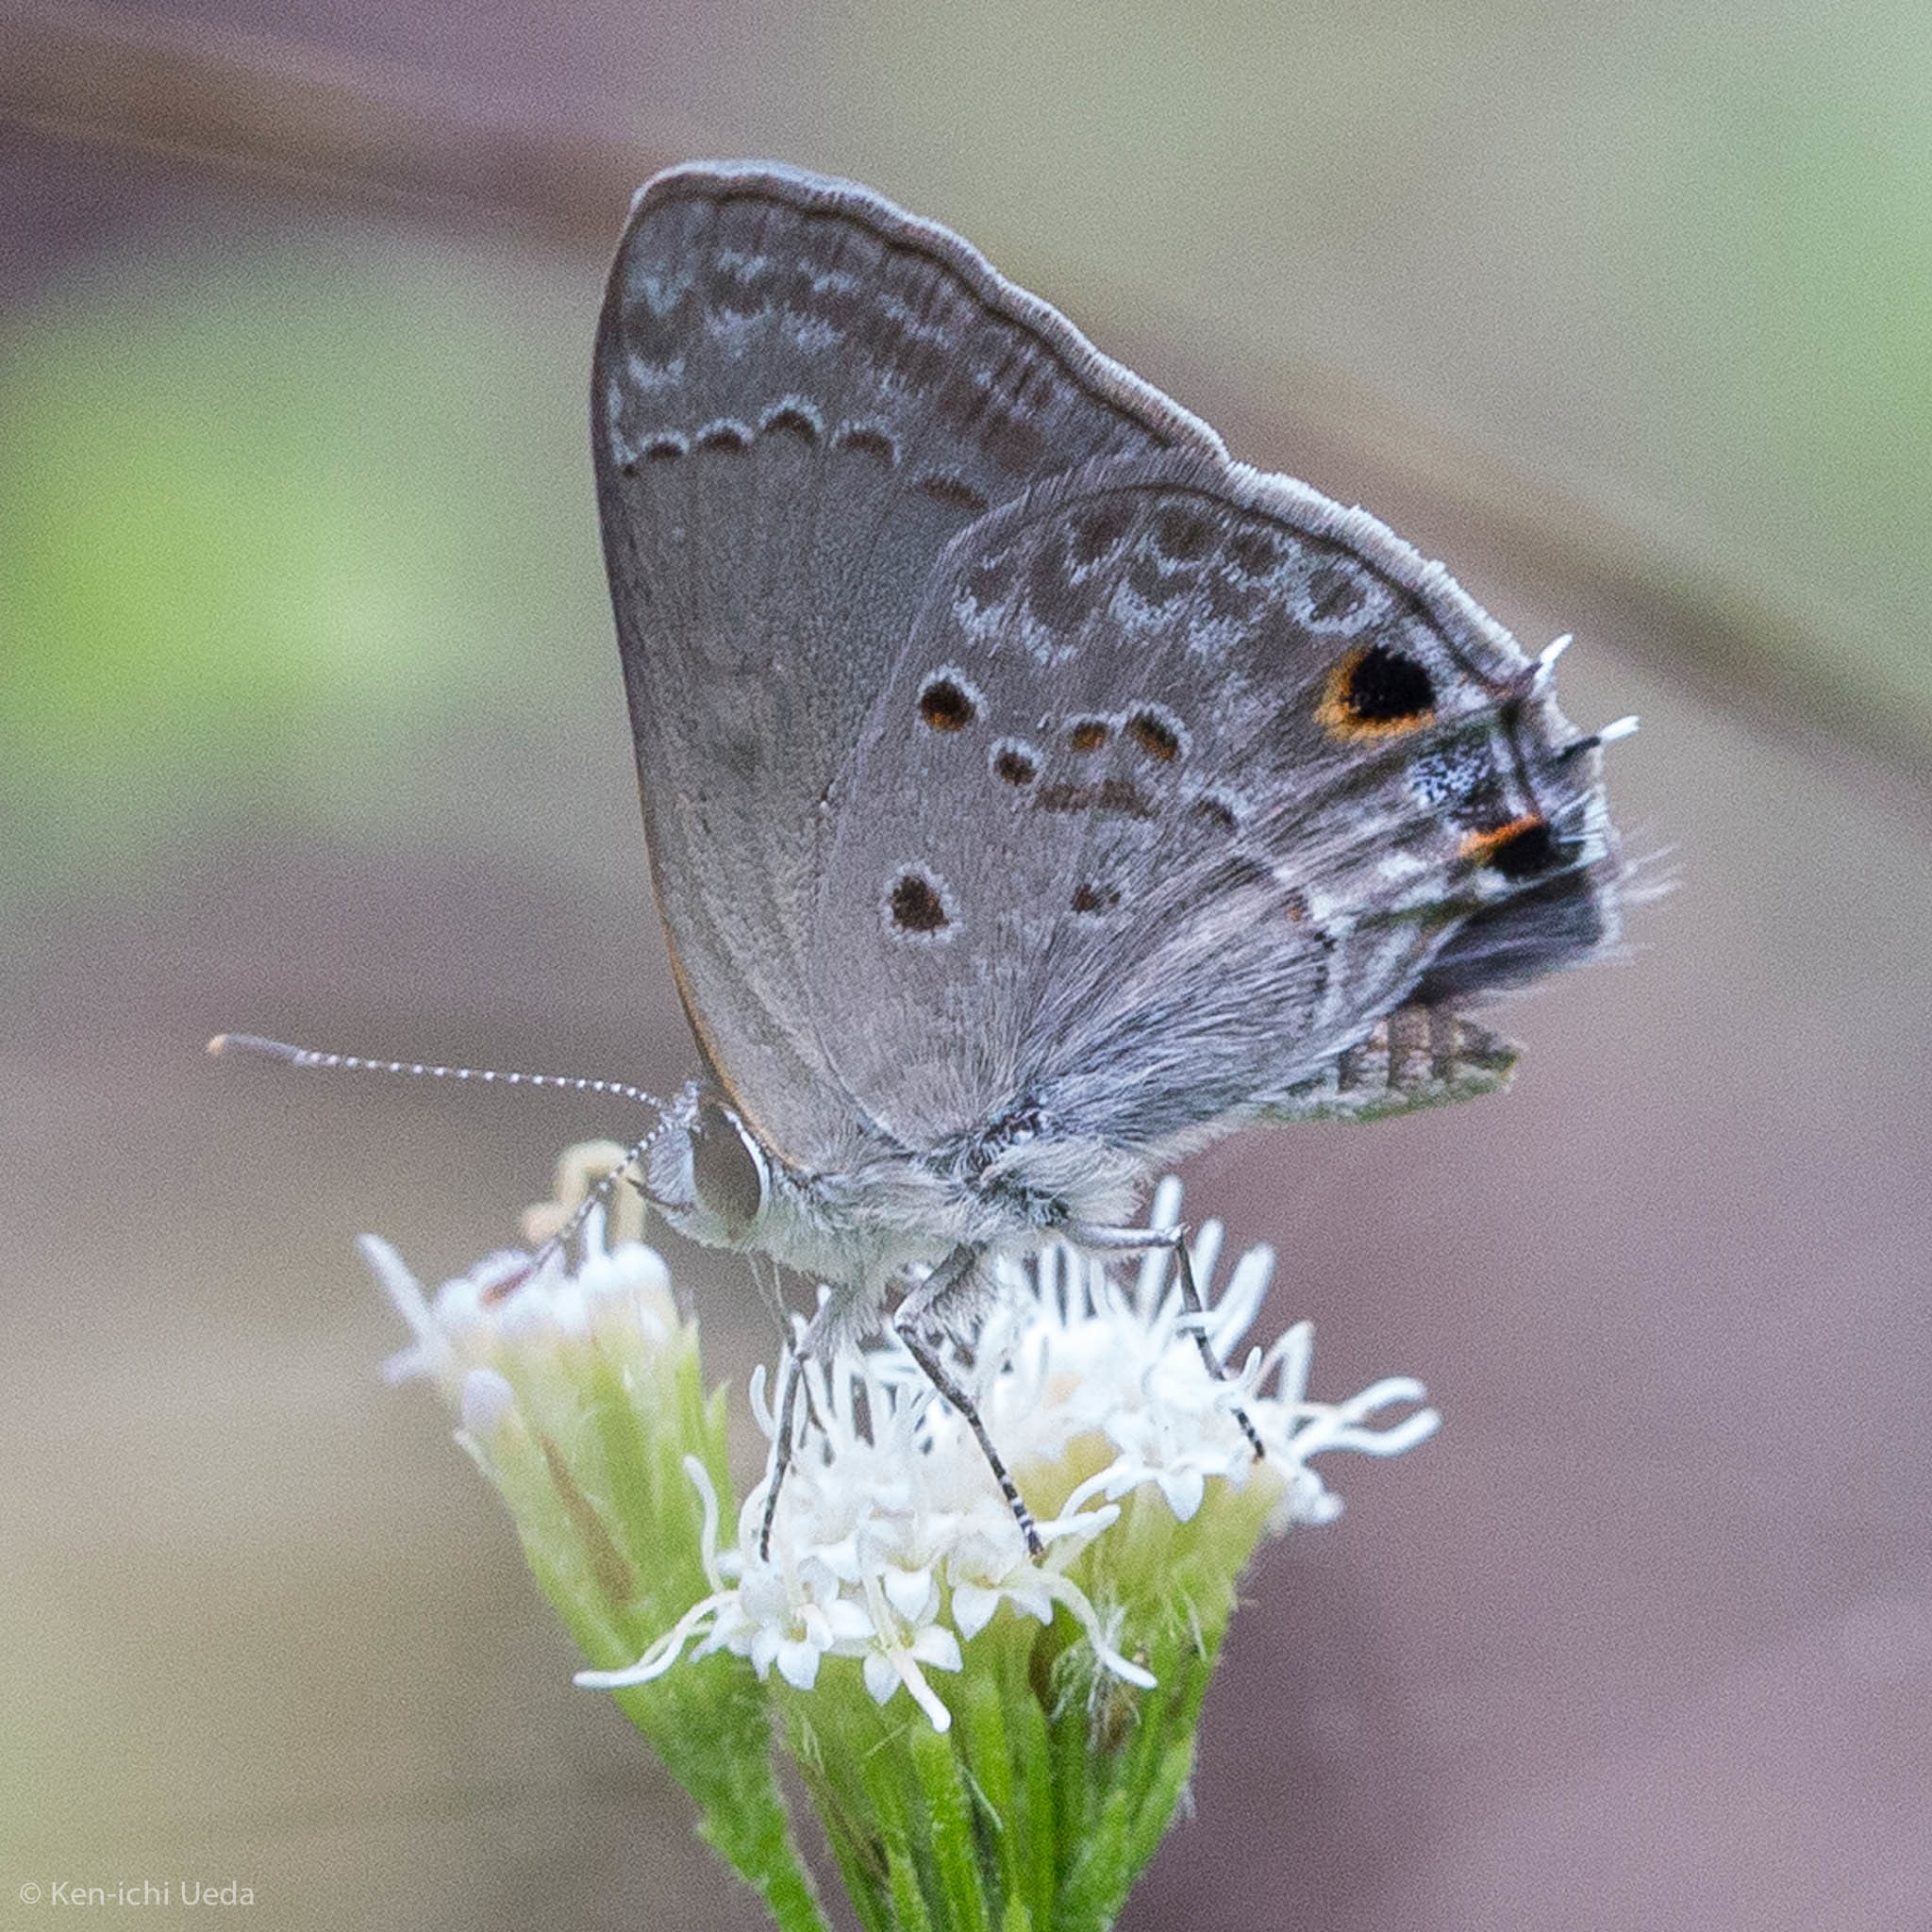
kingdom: Animalia
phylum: Arthropoda
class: Insecta
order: Lepidoptera
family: Lycaenidae
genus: Callicista
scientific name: Callicista columella
